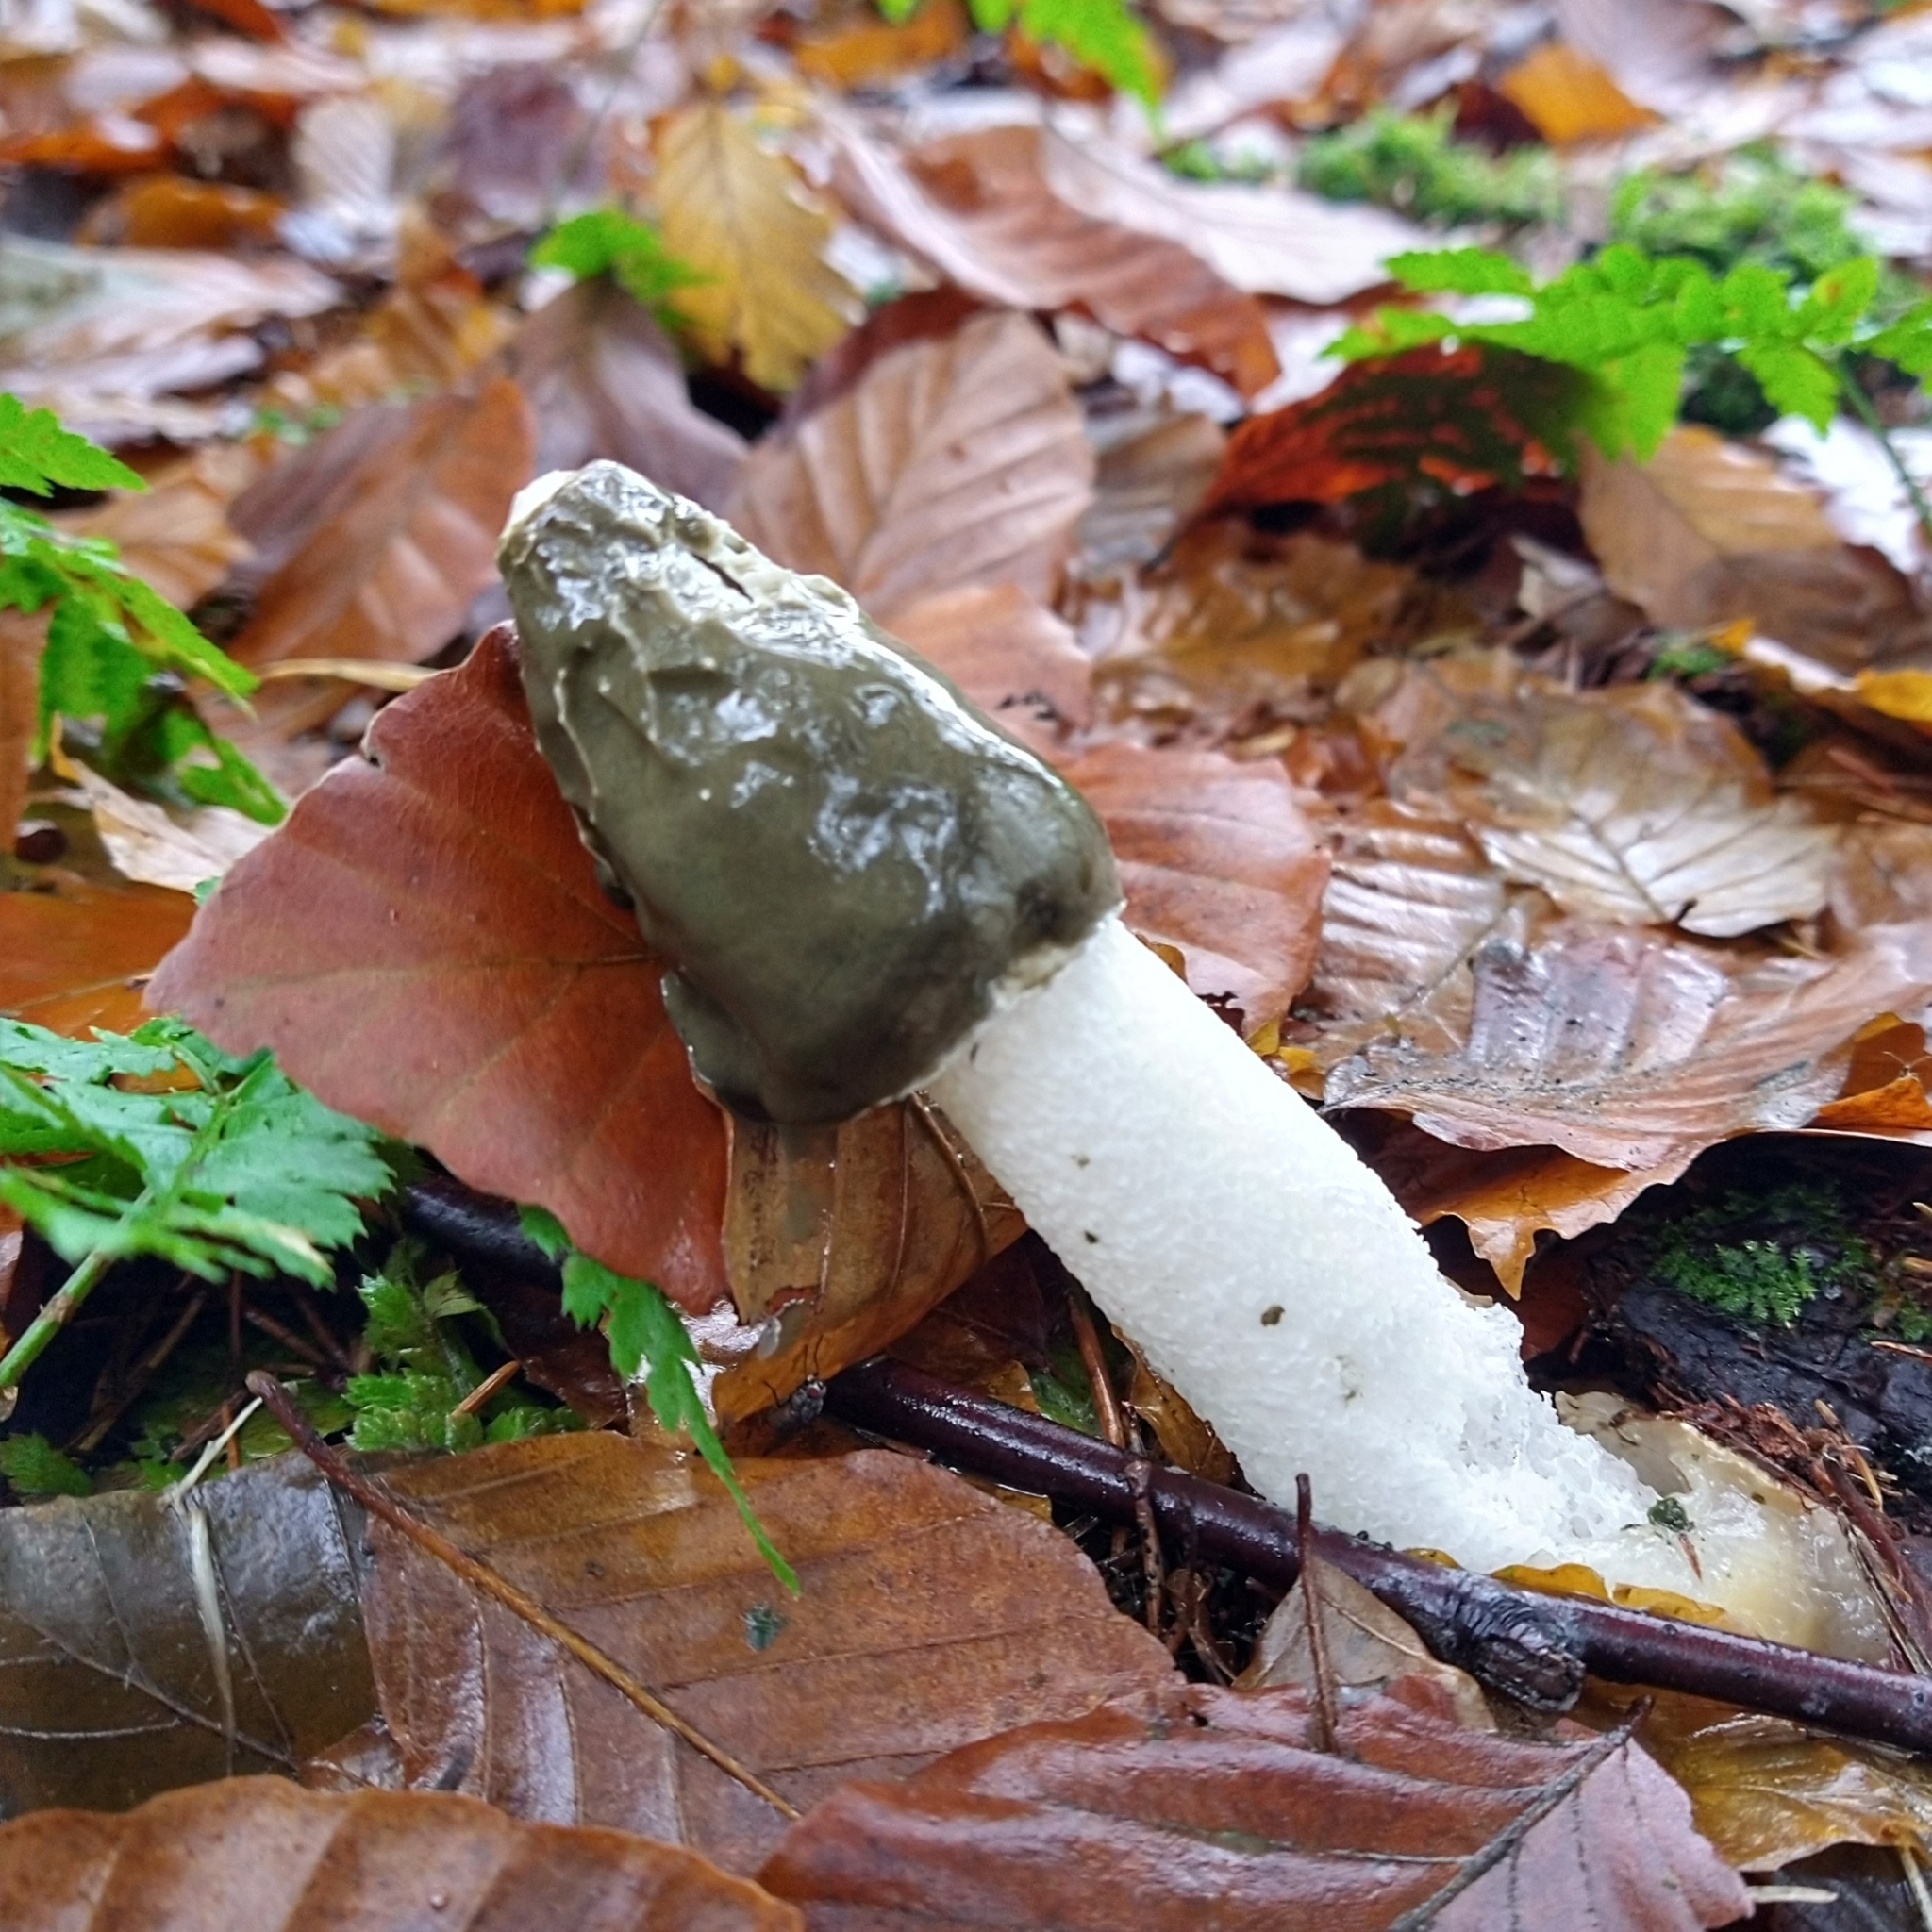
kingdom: Fungi
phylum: Basidiomycota
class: Agaricomycetes
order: Phallales
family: Phallaceae
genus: Phallus
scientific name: Phallus impudicus
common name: Common stinkhorn
